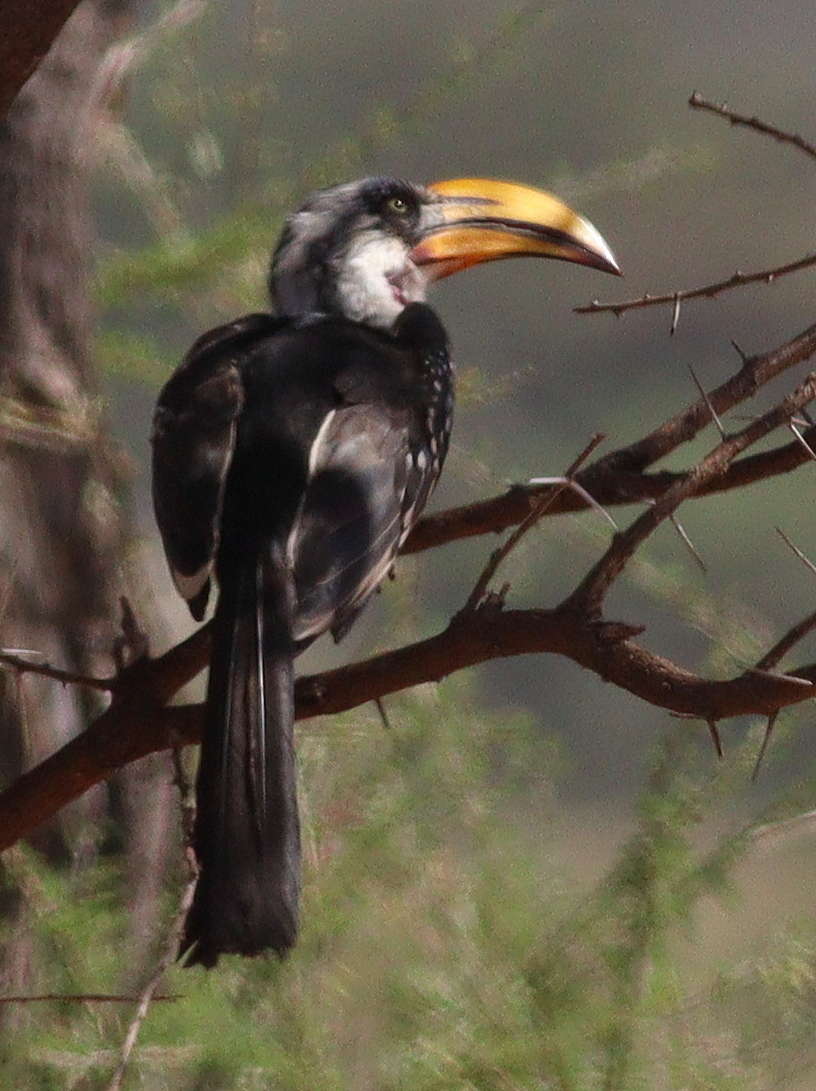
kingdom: Animalia
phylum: Chordata
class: Aves
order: Bucerotiformes
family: Bucerotidae
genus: Tockus
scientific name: Tockus flavirostris
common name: Eastern yellow-billed hornbill
